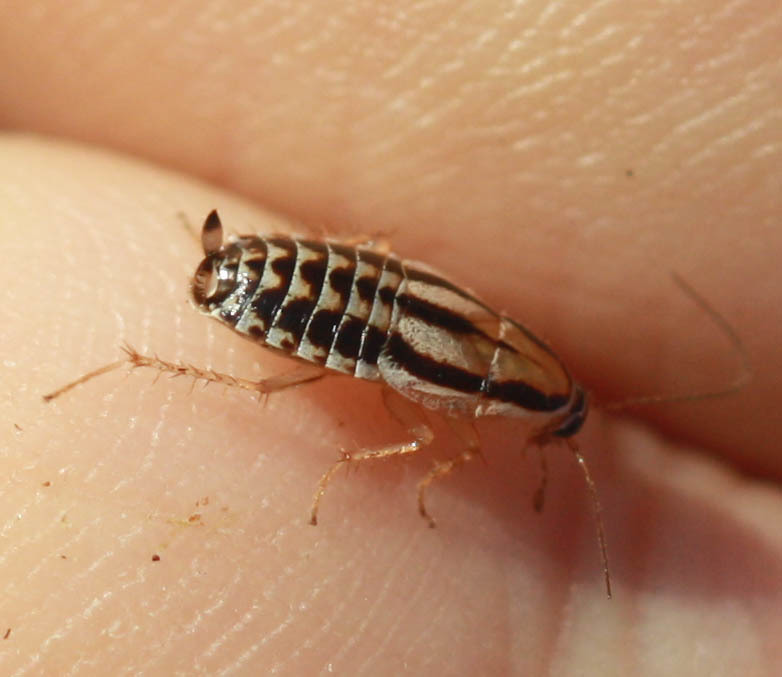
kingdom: Animalia
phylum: Arthropoda
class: Insecta
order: Blattodea
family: Ectobiidae
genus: Luridiblatta
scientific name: Luridiblatta trivittata
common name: Three-lined cockroach
